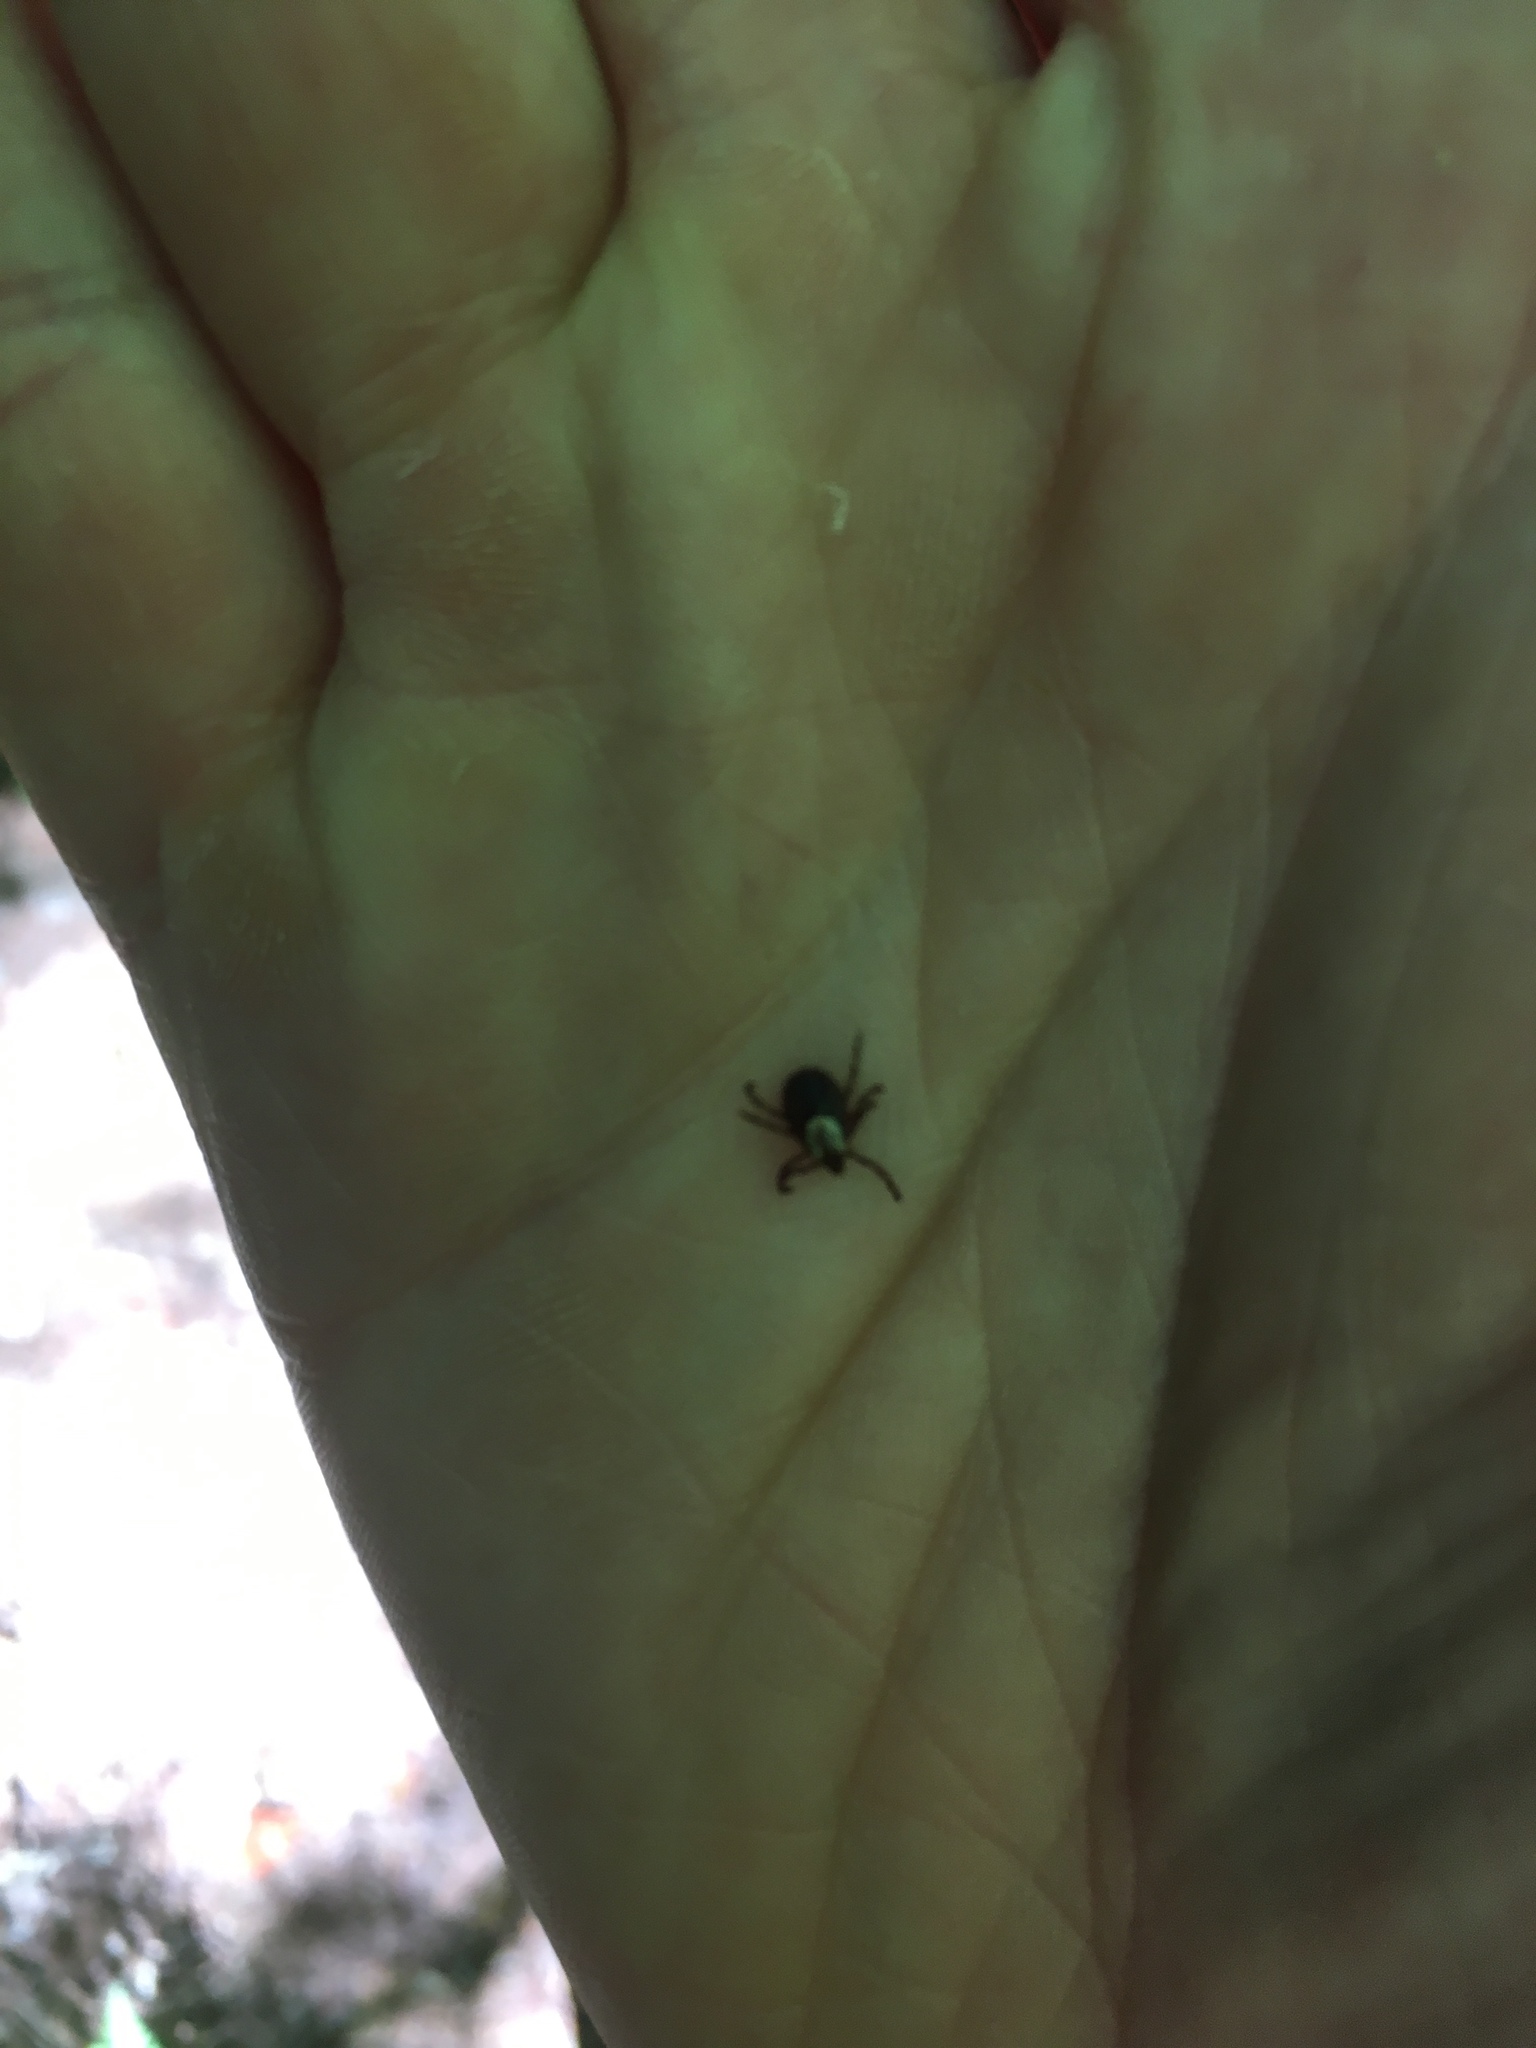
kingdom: Animalia
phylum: Arthropoda
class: Arachnida
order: Ixodida
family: Ixodidae
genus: Dermacentor
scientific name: Dermacentor variabilis
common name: American dog tick
